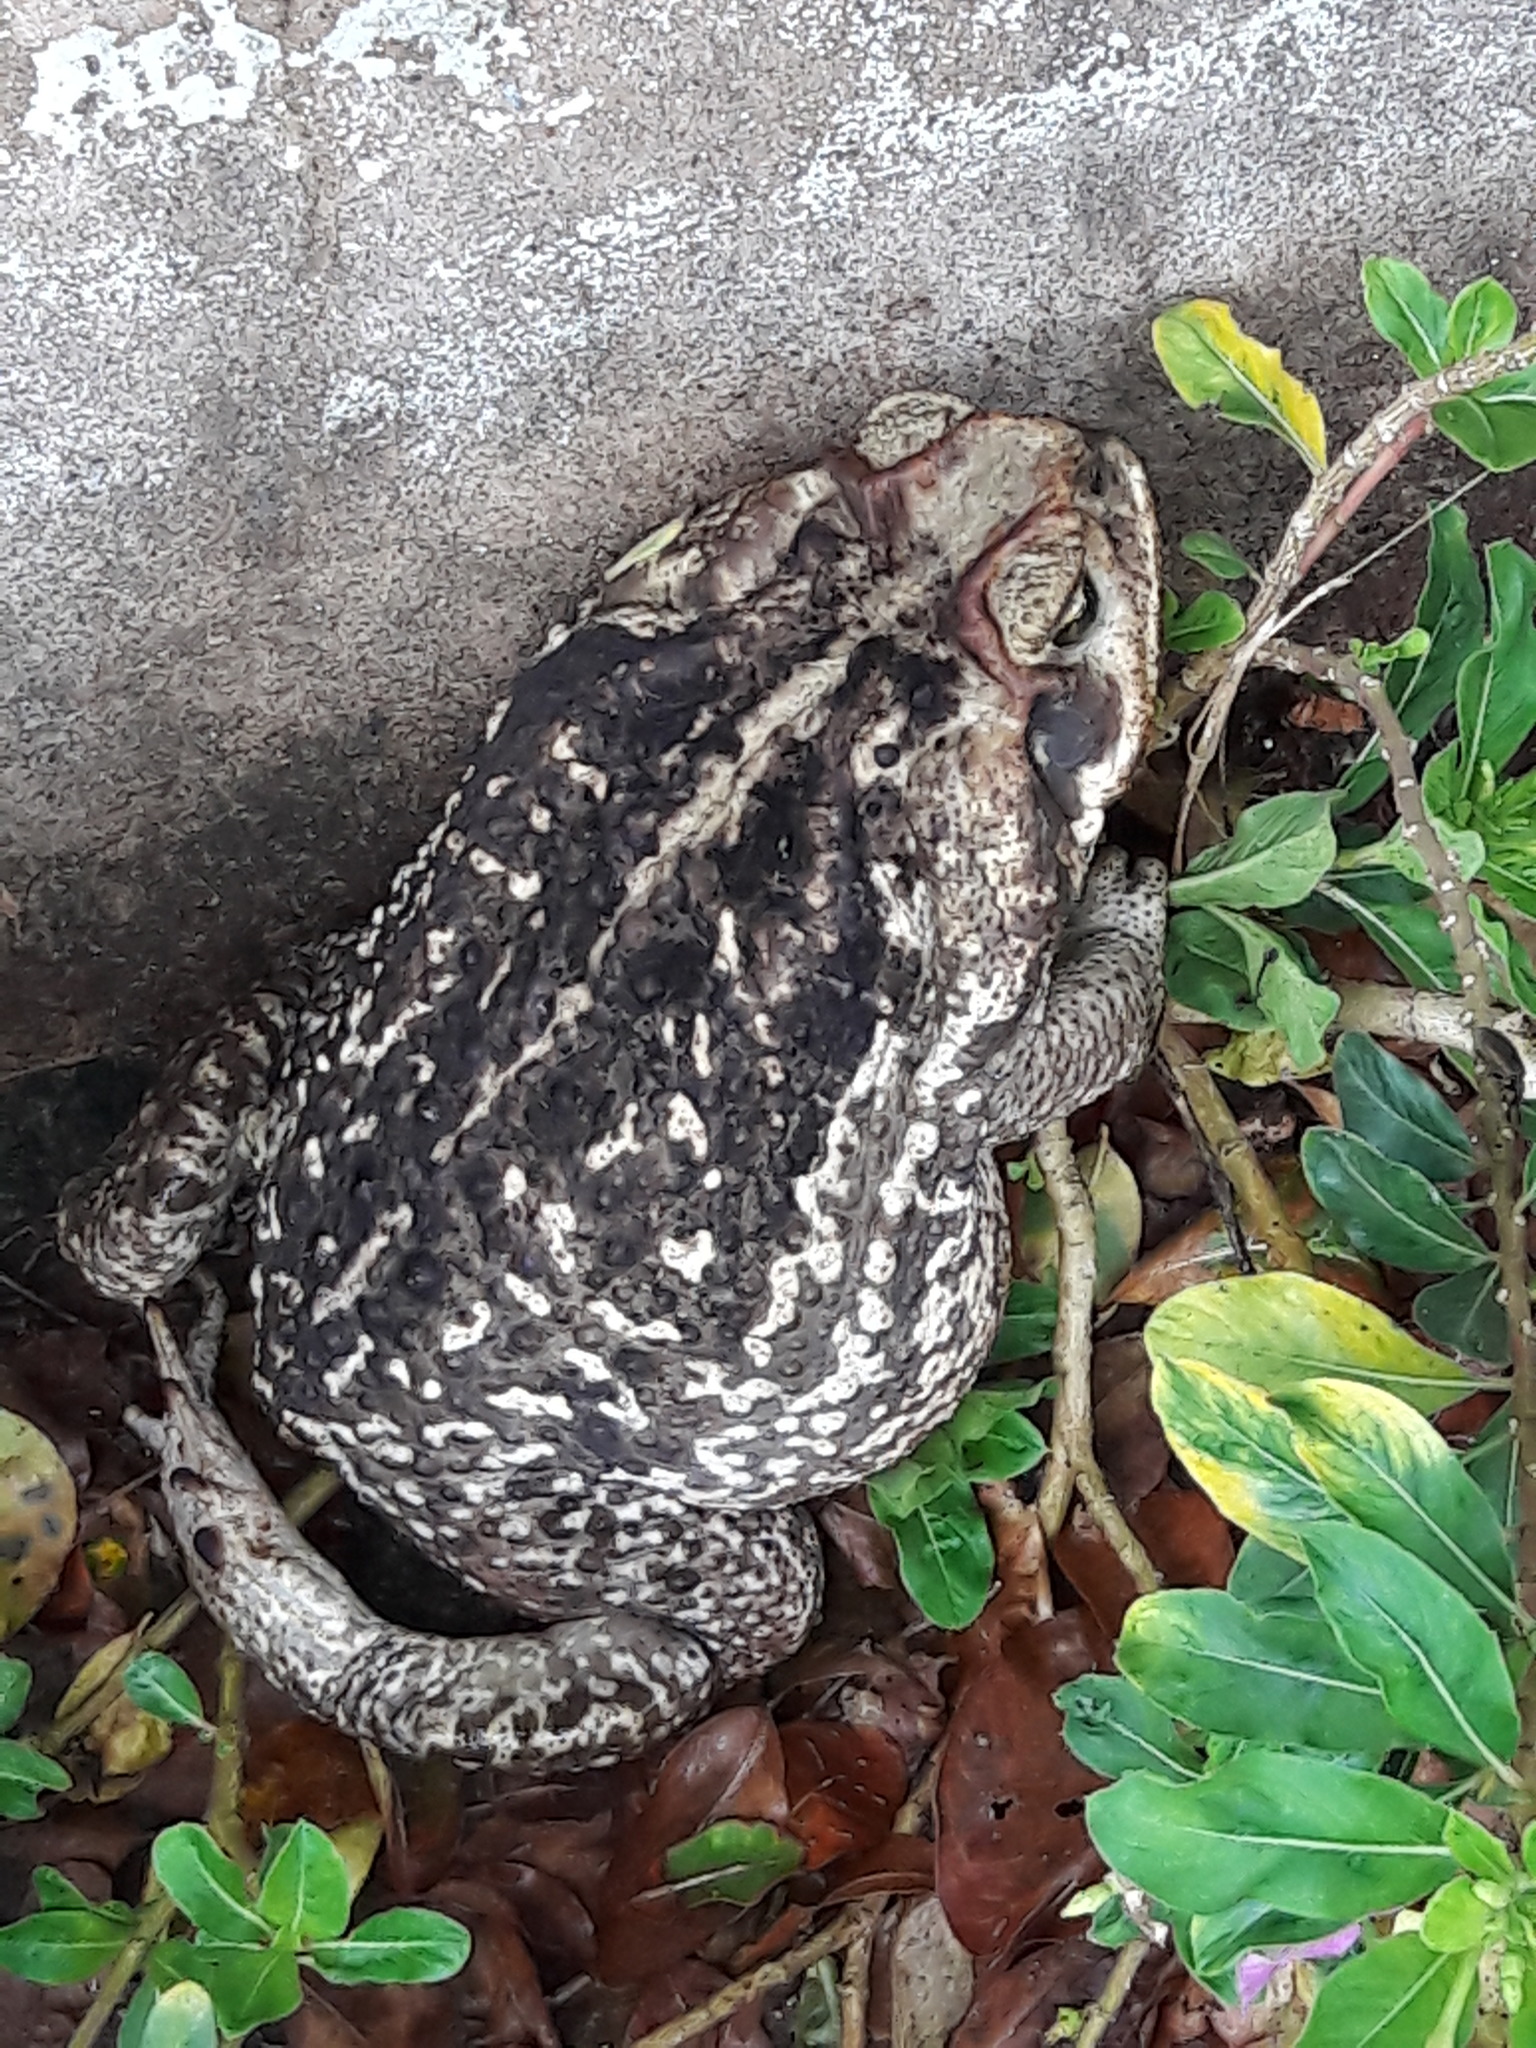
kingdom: Animalia
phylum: Chordata
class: Amphibia
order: Anura
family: Bufonidae
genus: Rhinella
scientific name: Rhinella diptycha
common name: Cope's toad
